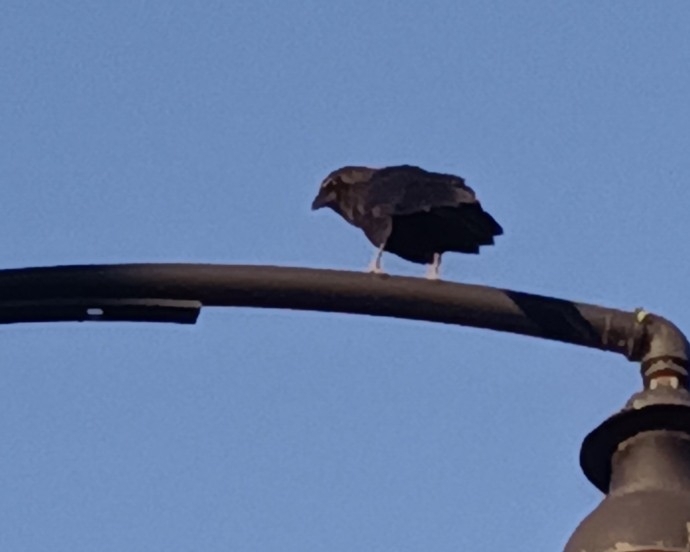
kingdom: Animalia
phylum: Chordata
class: Aves
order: Passeriformes
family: Corvidae
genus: Corvus
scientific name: Corvus brachyrhynchos
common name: American crow
